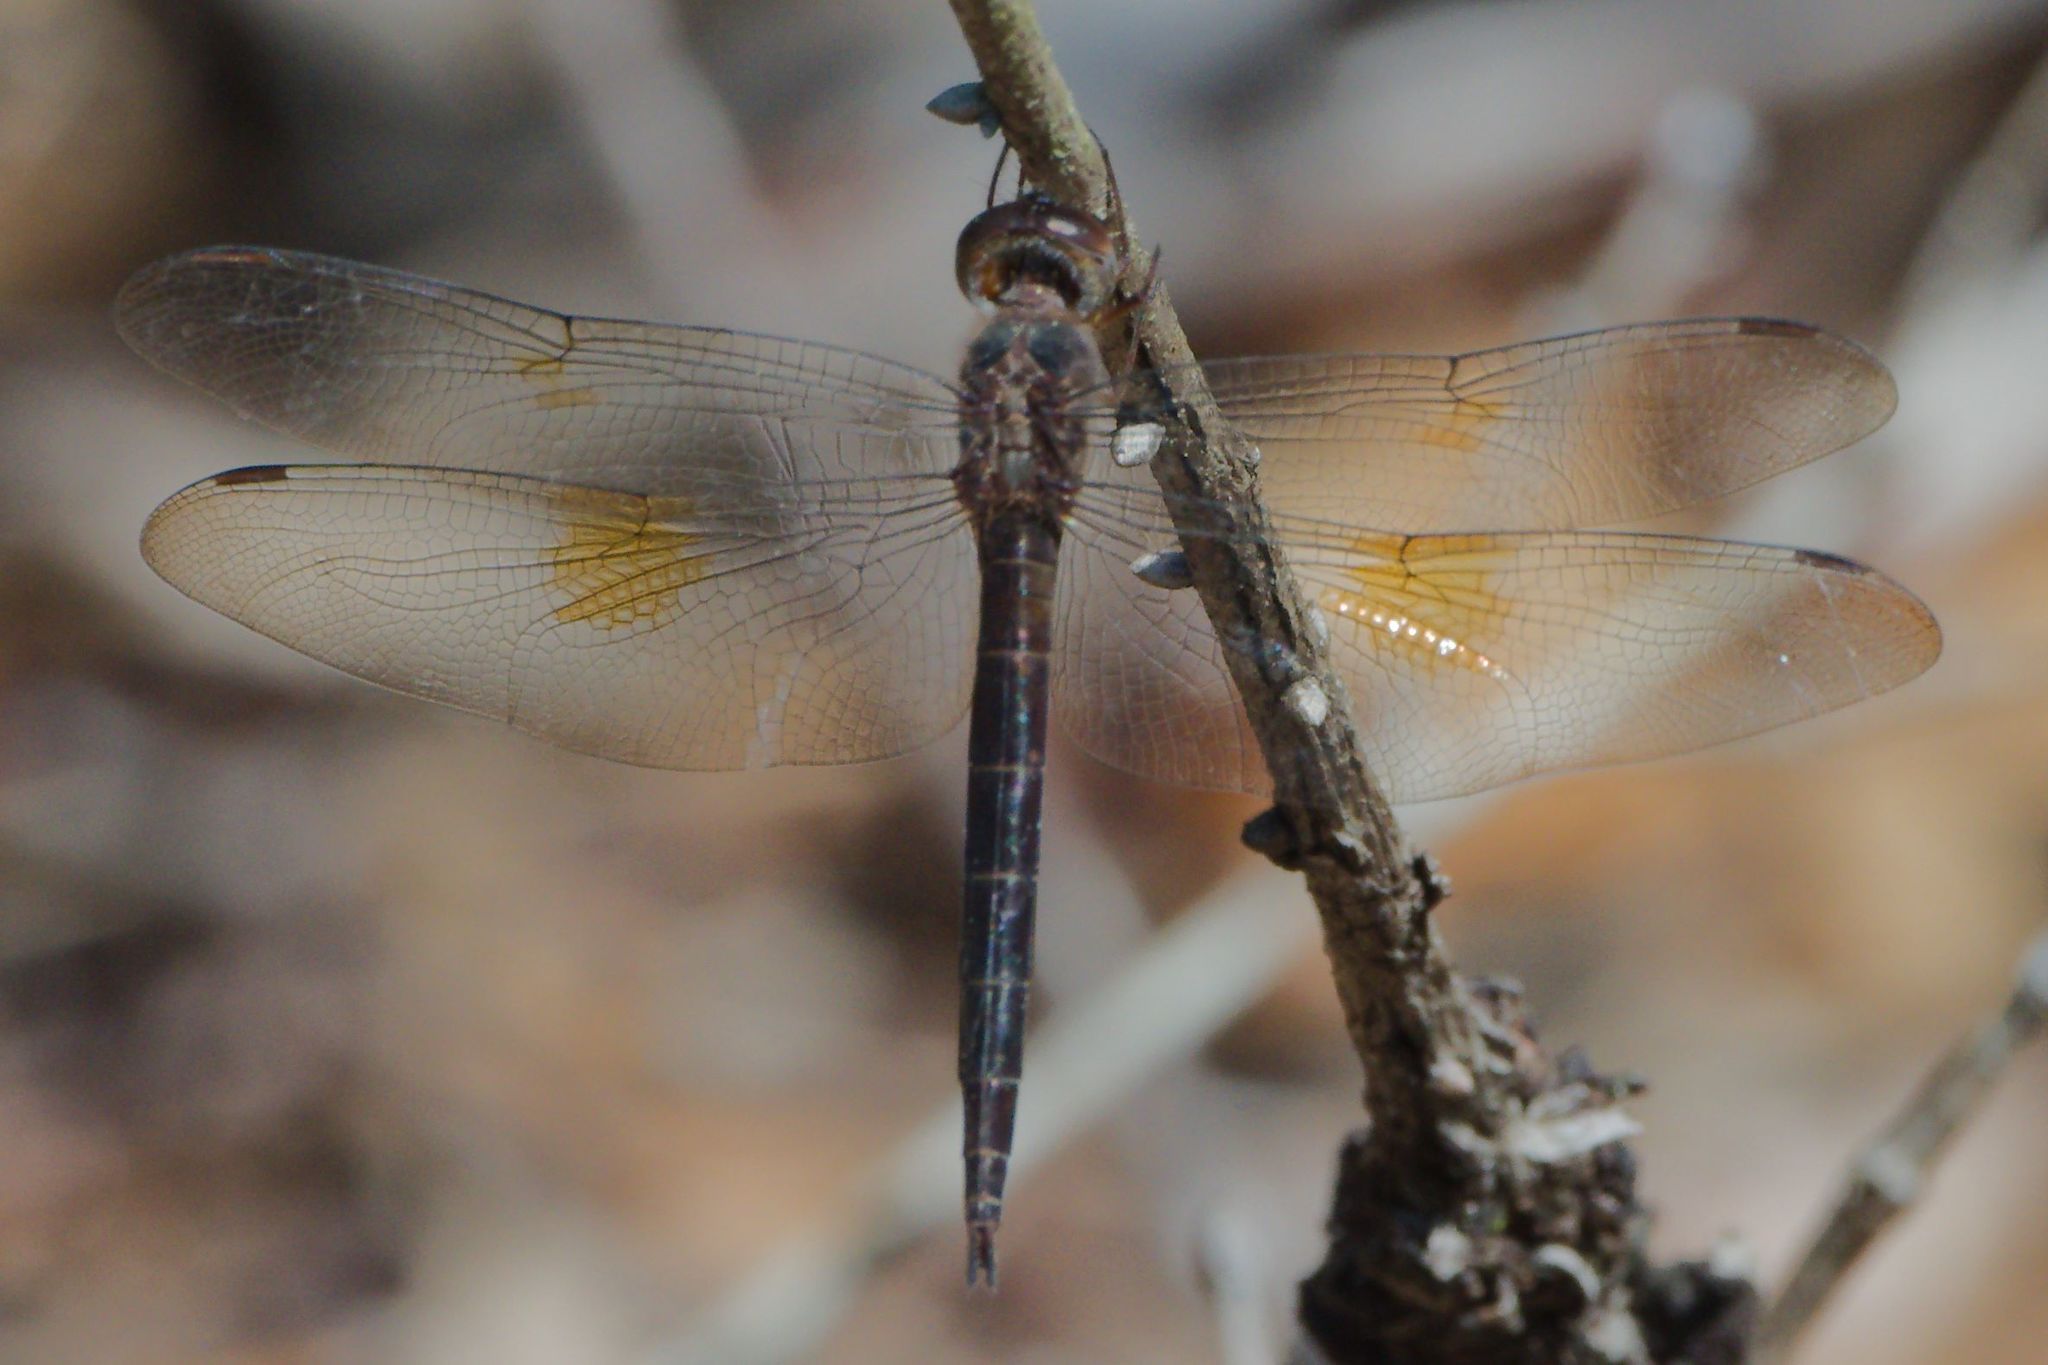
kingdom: Animalia
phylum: Arthropoda
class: Insecta
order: Odonata
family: Libellulidae
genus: Tholymis
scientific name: Tholymis citrina
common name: Evening skimmer
